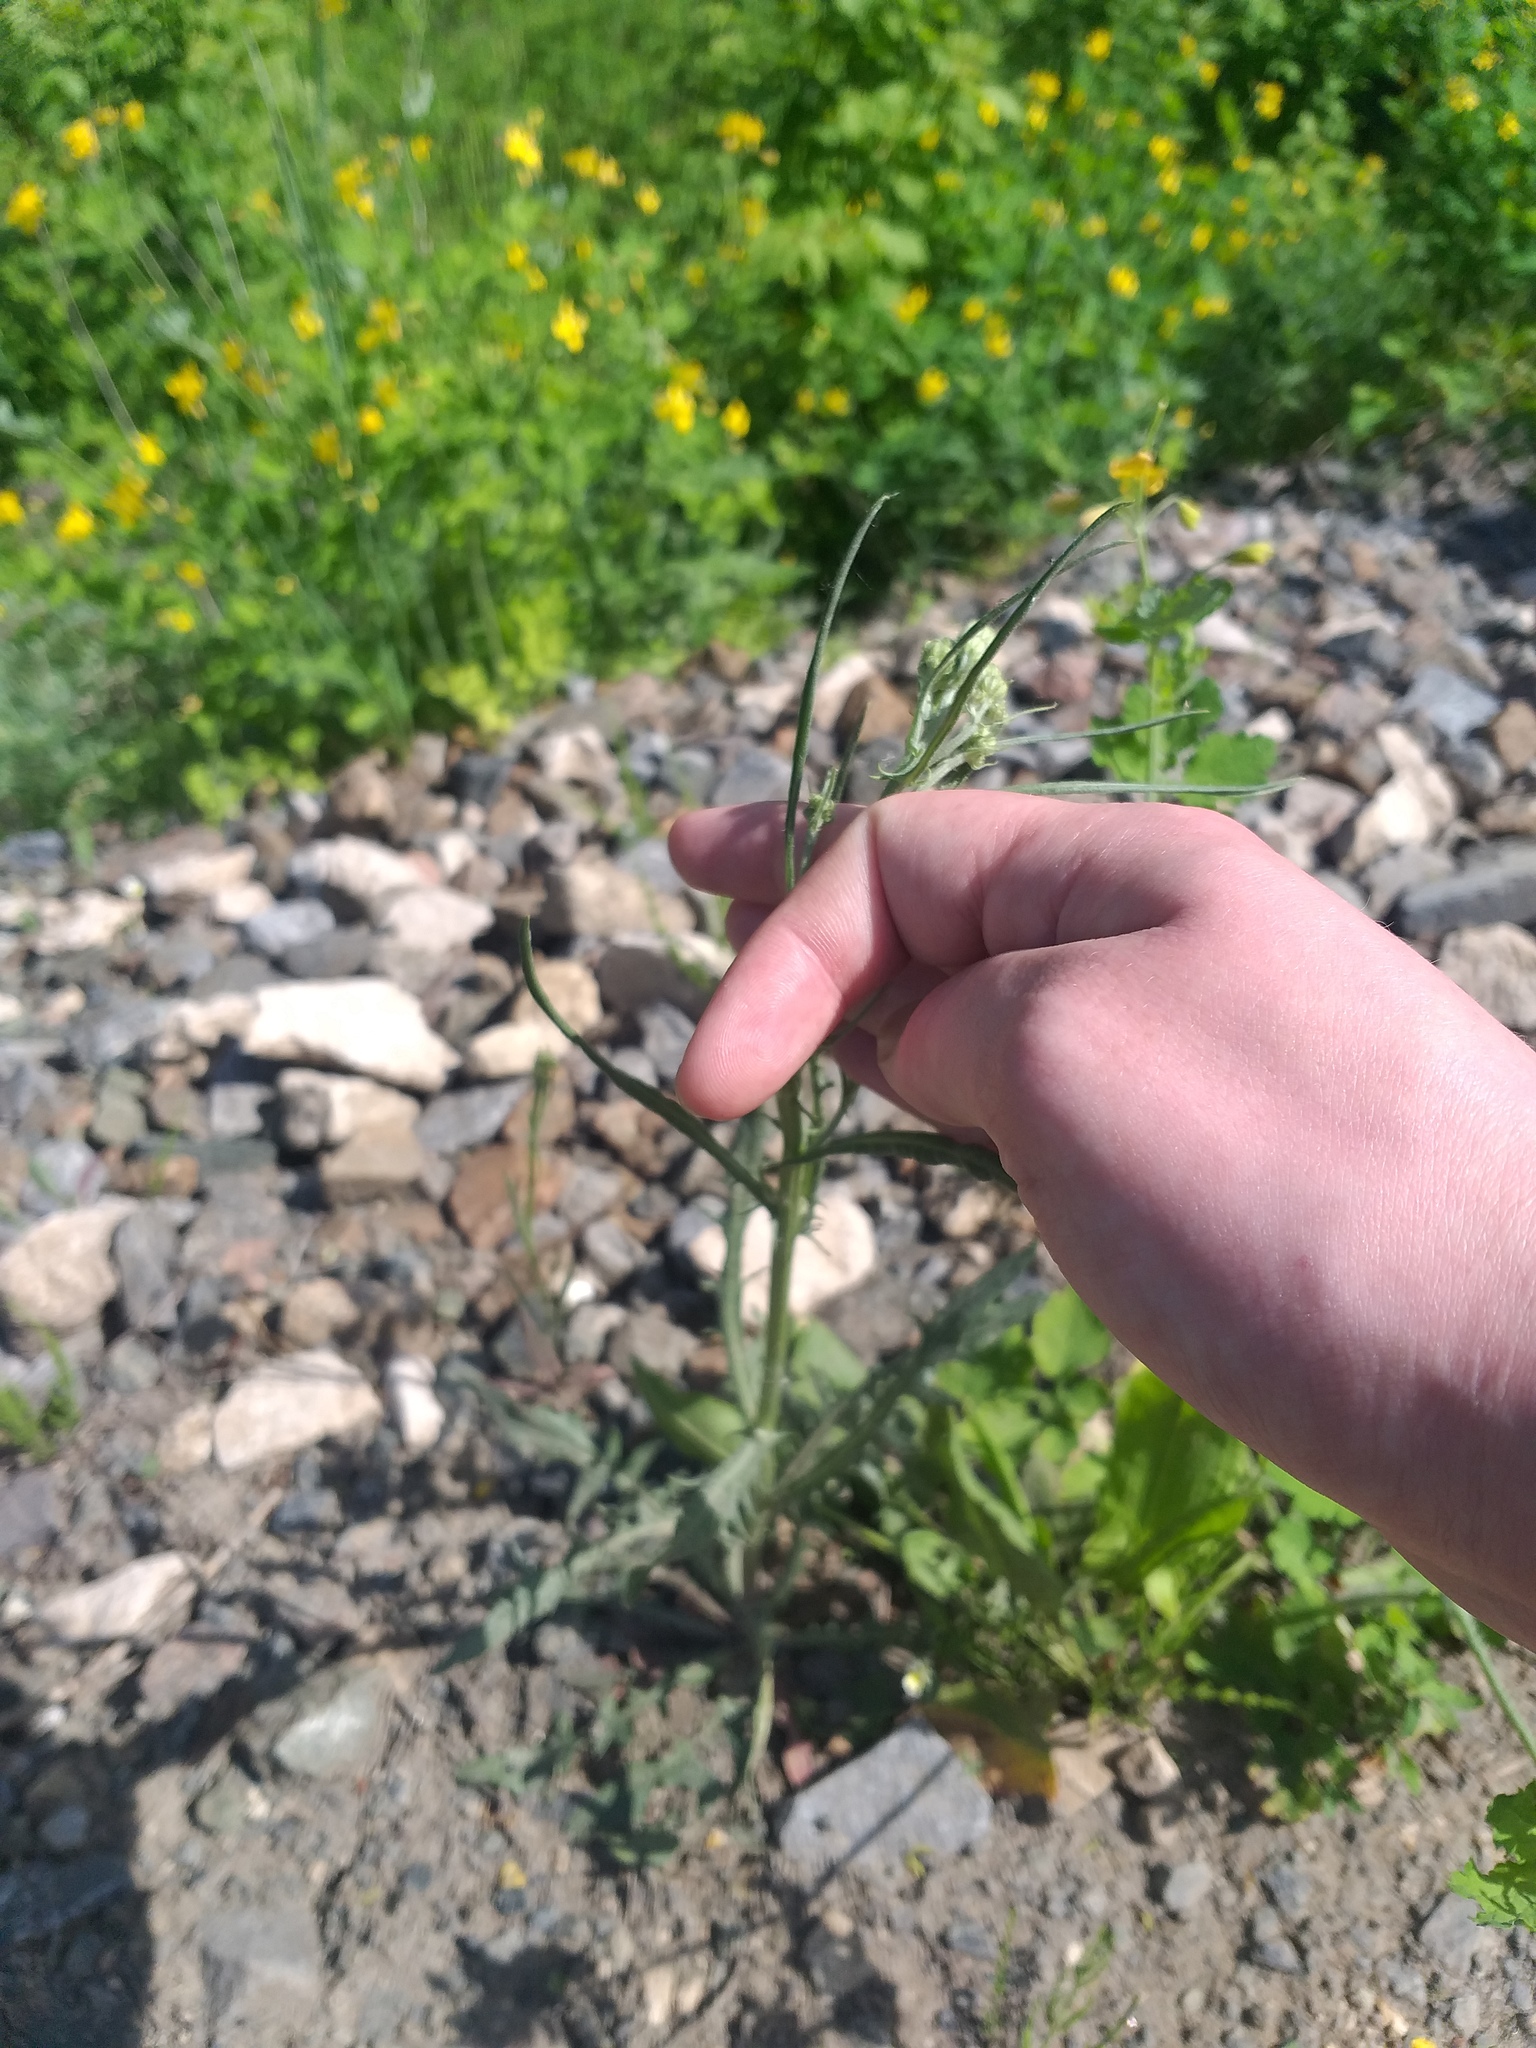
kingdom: Plantae
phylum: Tracheophyta
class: Magnoliopsida
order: Asterales
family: Asteraceae
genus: Crepis
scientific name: Crepis tectorum
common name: Narrow-leaved hawk's-beard
